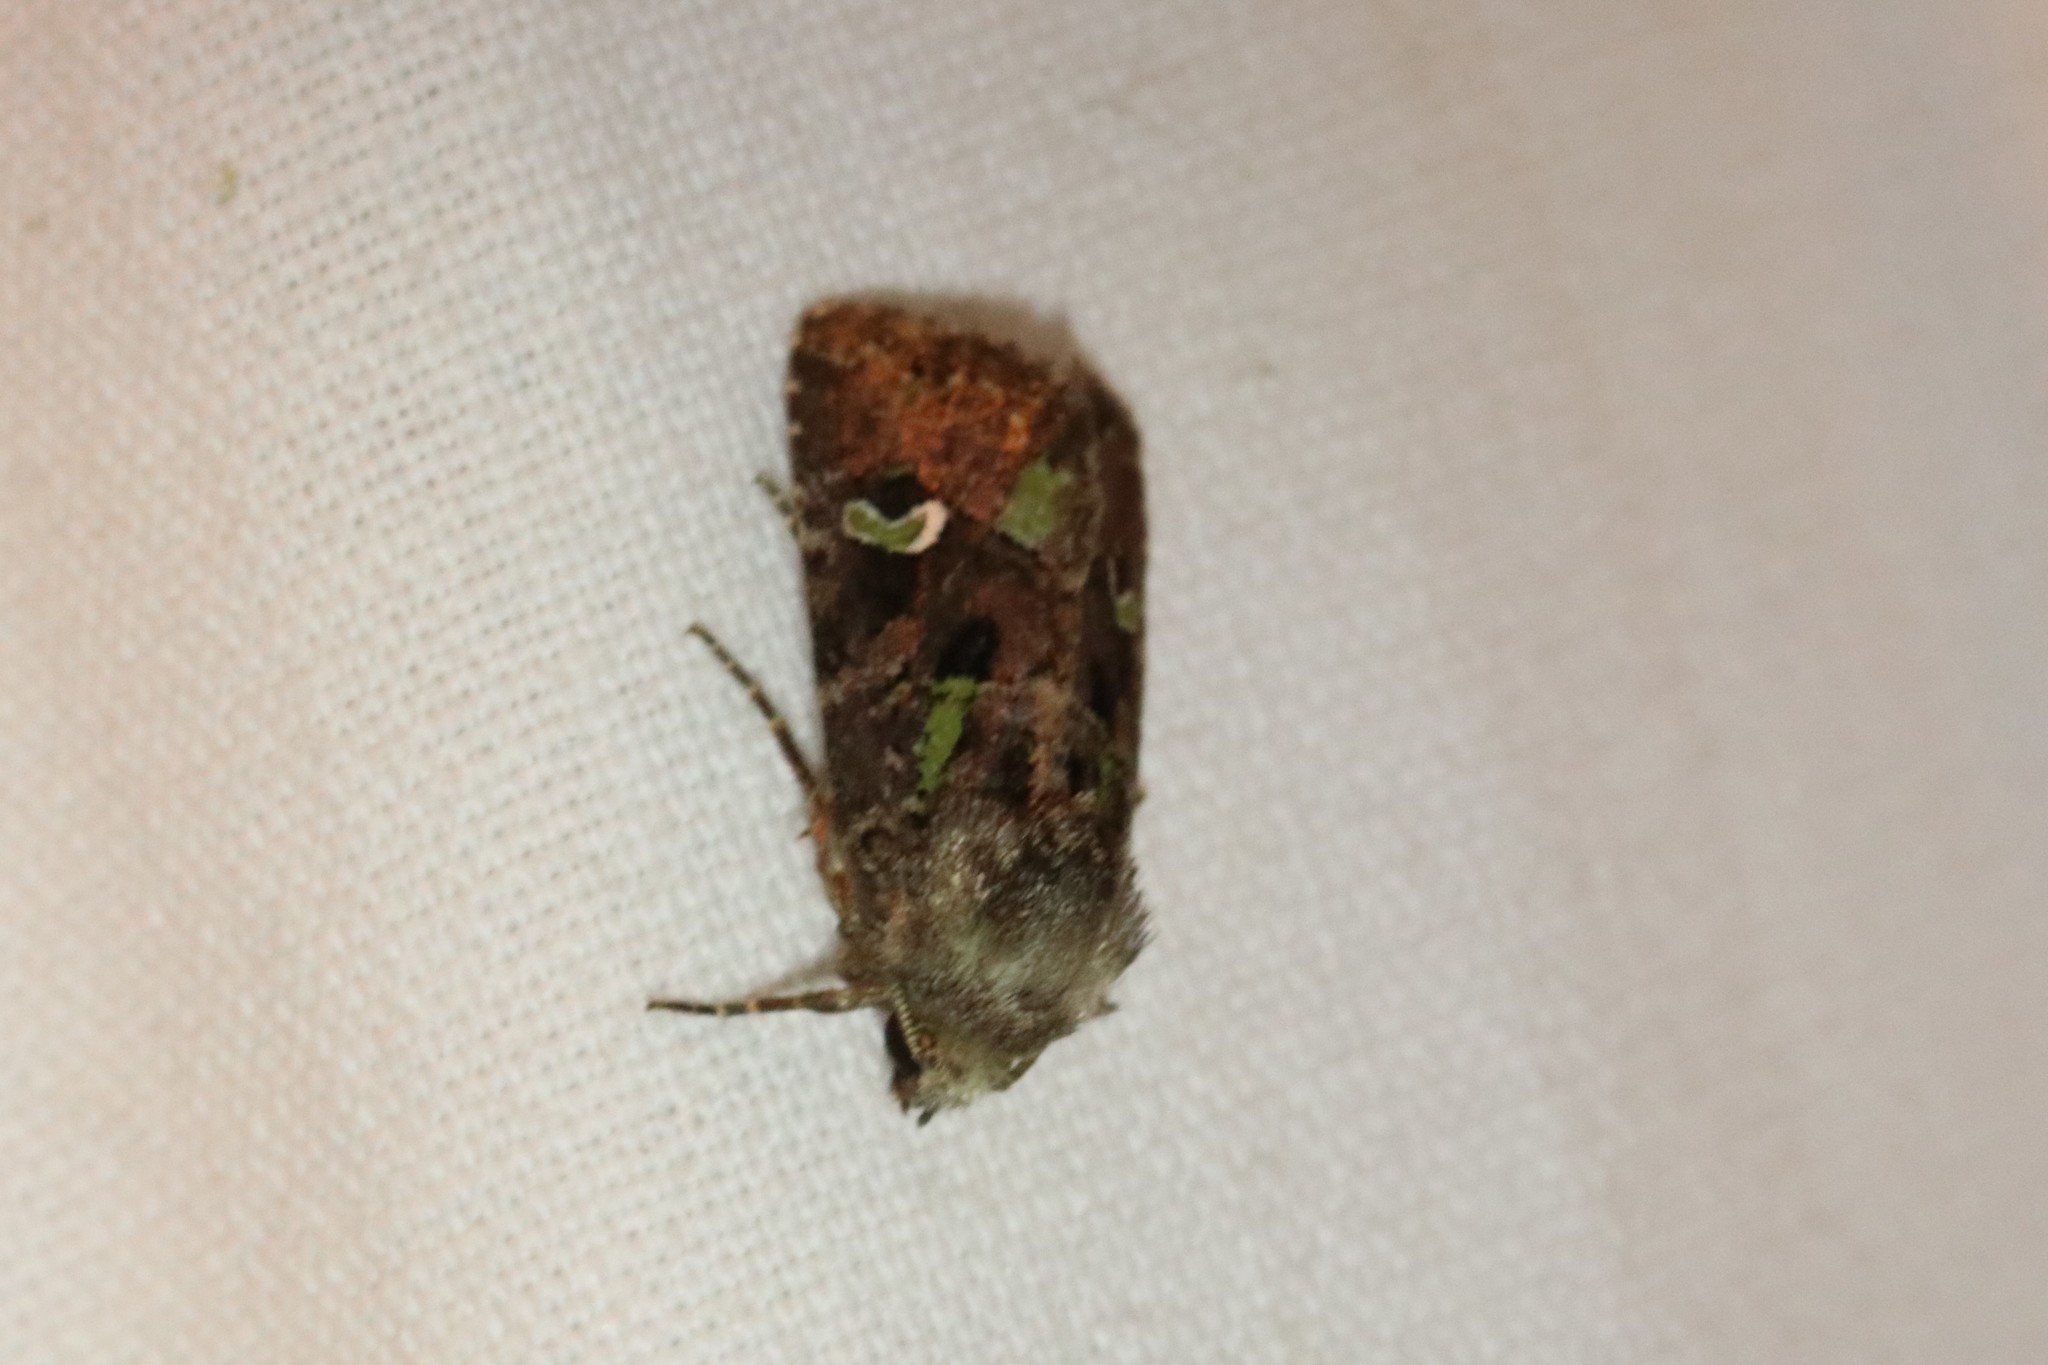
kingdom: Animalia
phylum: Arthropoda
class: Insecta
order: Lepidoptera
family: Noctuidae
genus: Lacinipolia
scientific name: Lacinipolia renigera
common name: Kidney-spotted minor
